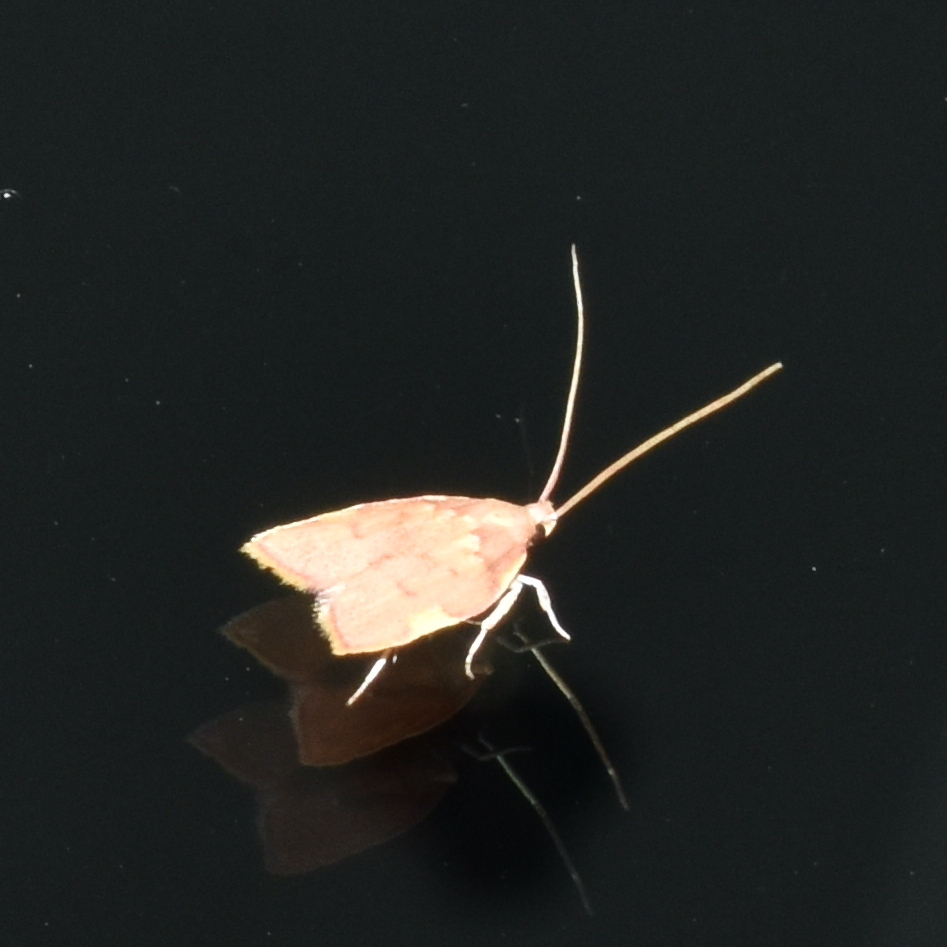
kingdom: Animalia
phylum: Arthropoda
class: Insecta
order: Lepidoptera
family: Peleopodidae
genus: Carcina
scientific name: Carcina quercana
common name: Moth
